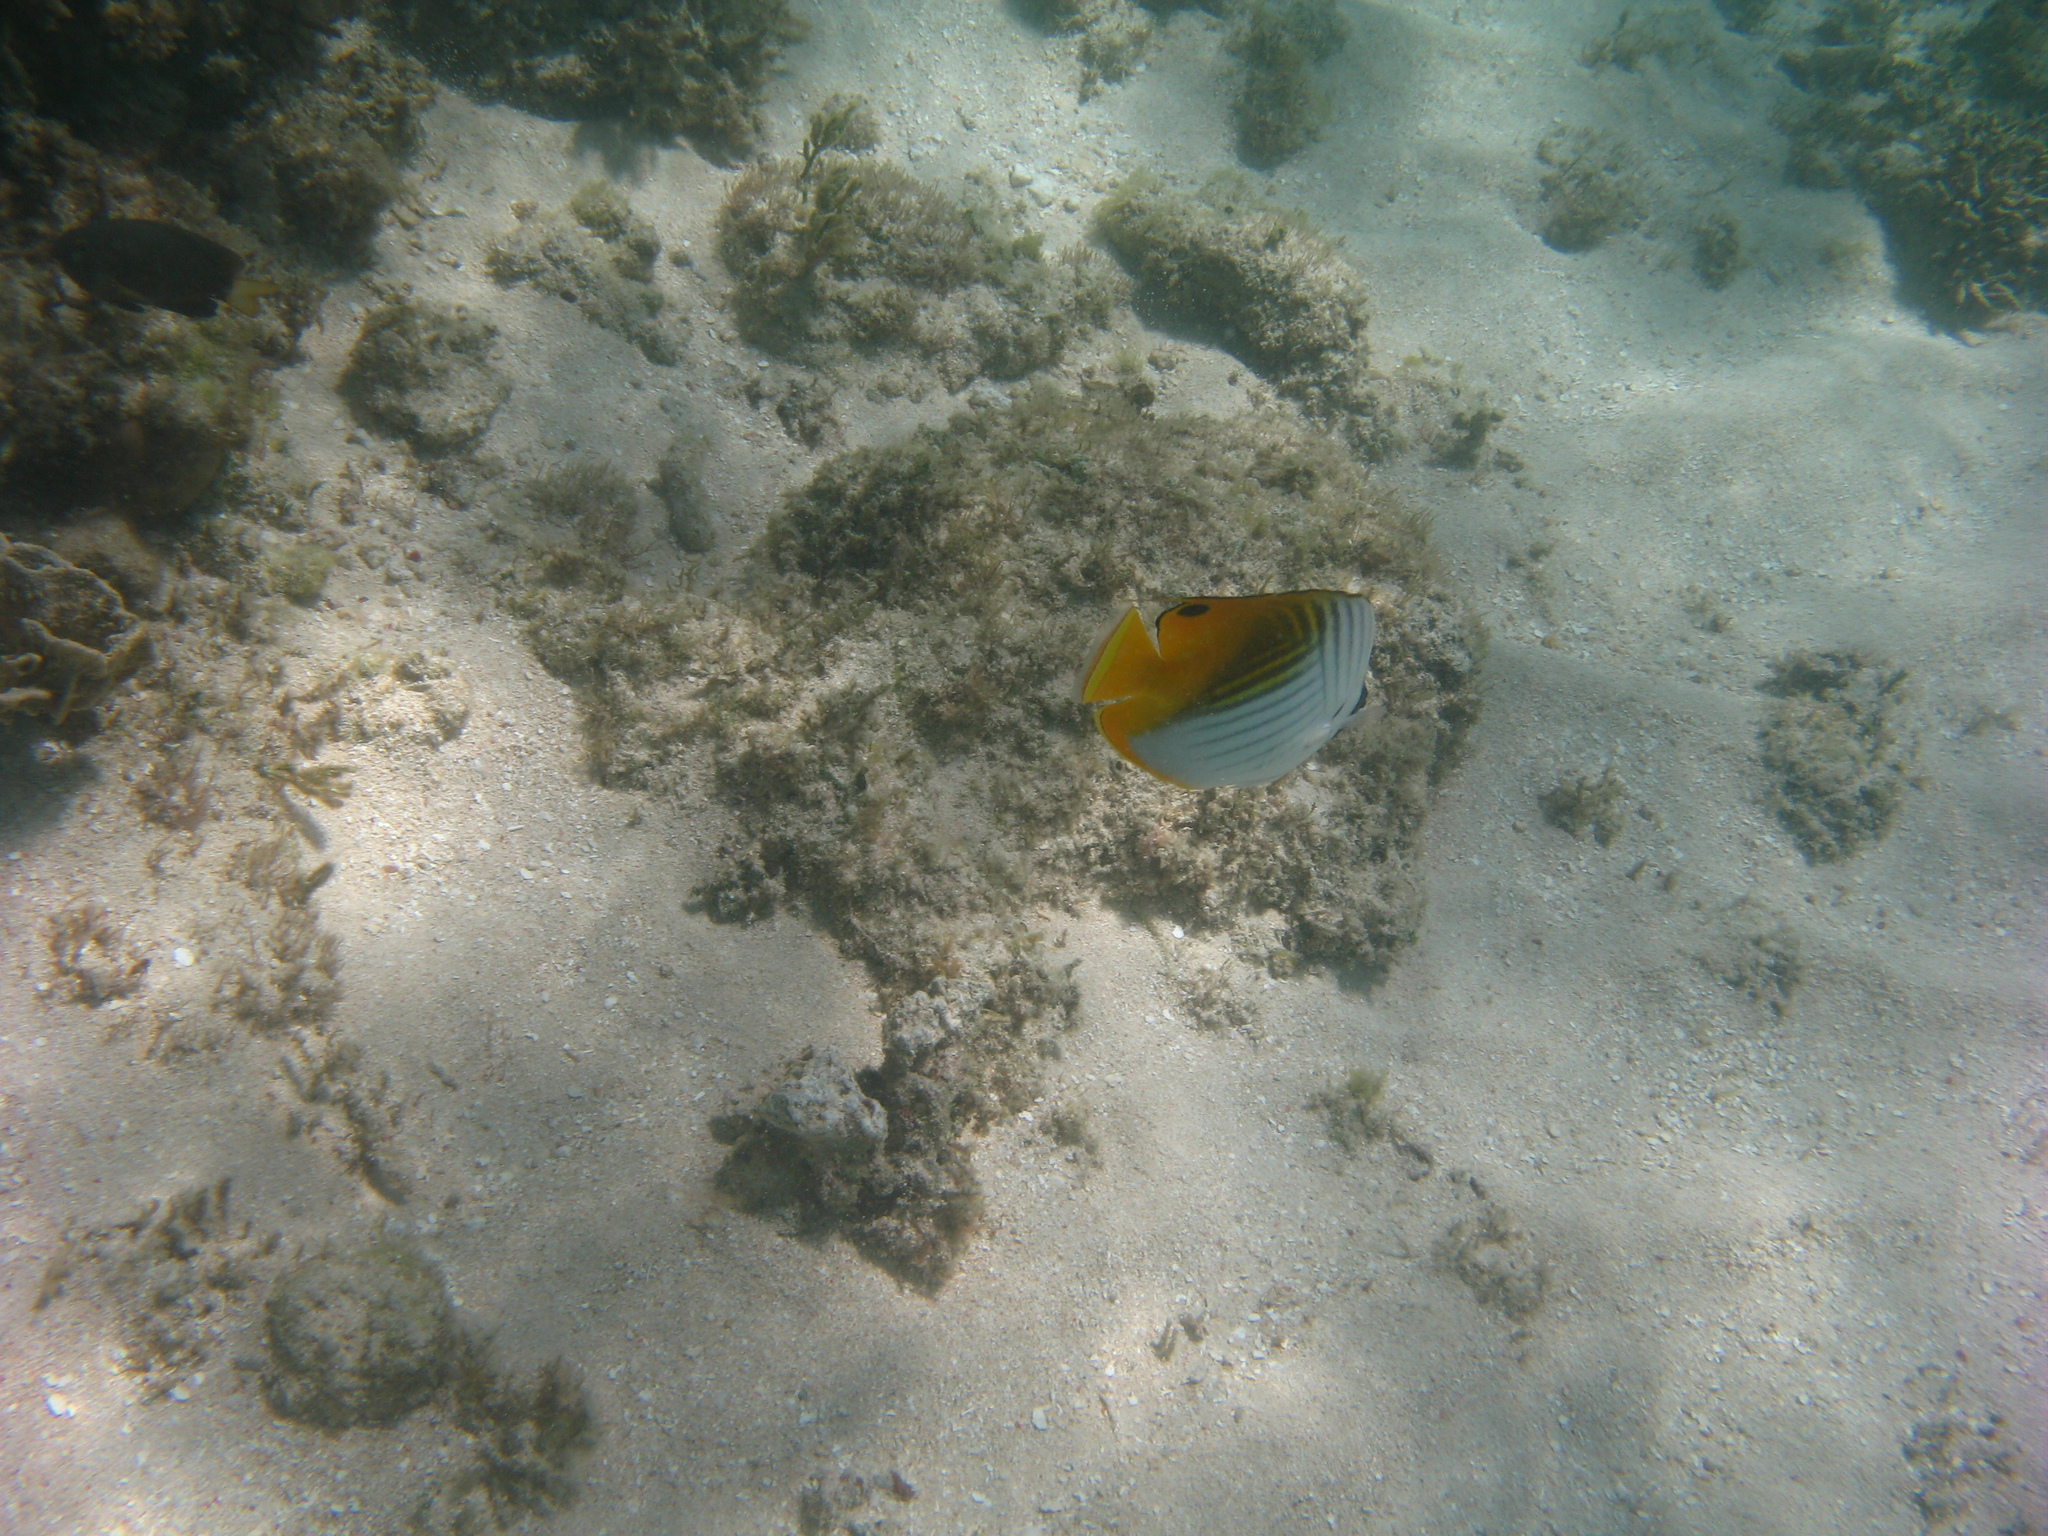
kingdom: Animalia
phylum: Chordata
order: Perciformes
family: Chaetodontidae
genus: Chaetodon
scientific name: Chaetodon auriga
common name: Threadfin butterflyfish
